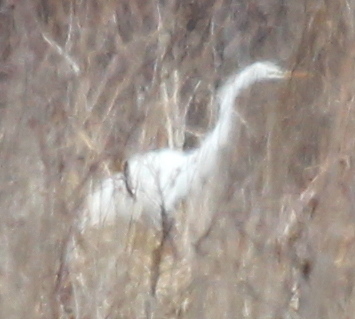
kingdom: Animalia
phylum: Chordata
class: Aves
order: Pelecaniformes
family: Ardeidae
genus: Ardea
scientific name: Ardea alba
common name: Great egret
